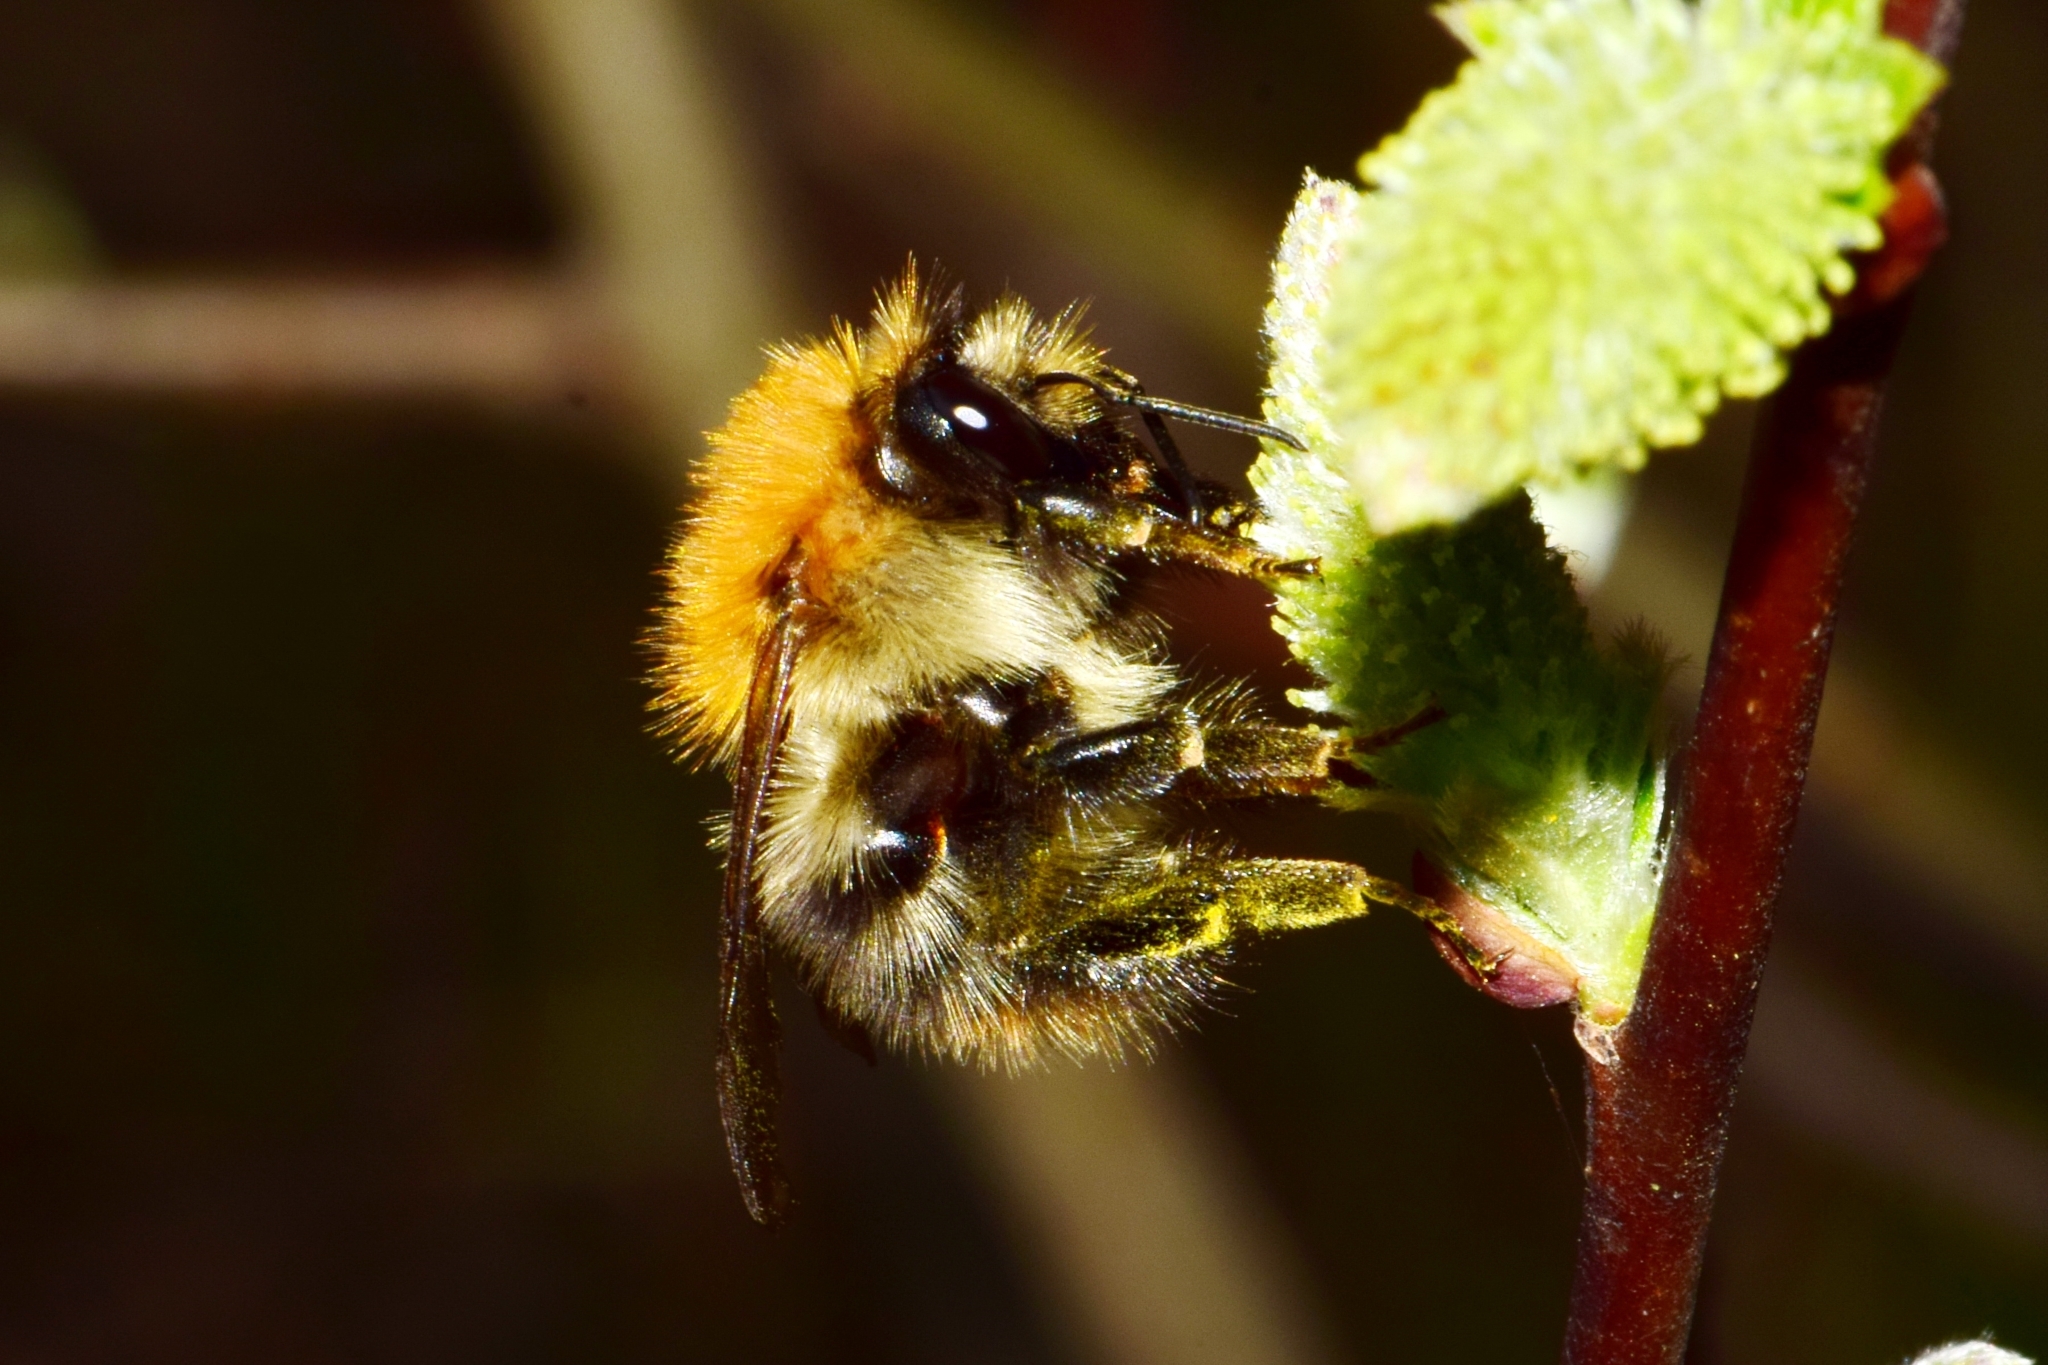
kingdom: Animalia
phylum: Arthropoda
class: Insecta
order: Hymenoptera
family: Apidae
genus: Bombus
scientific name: Bombus pascuorum
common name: Common carder bee
